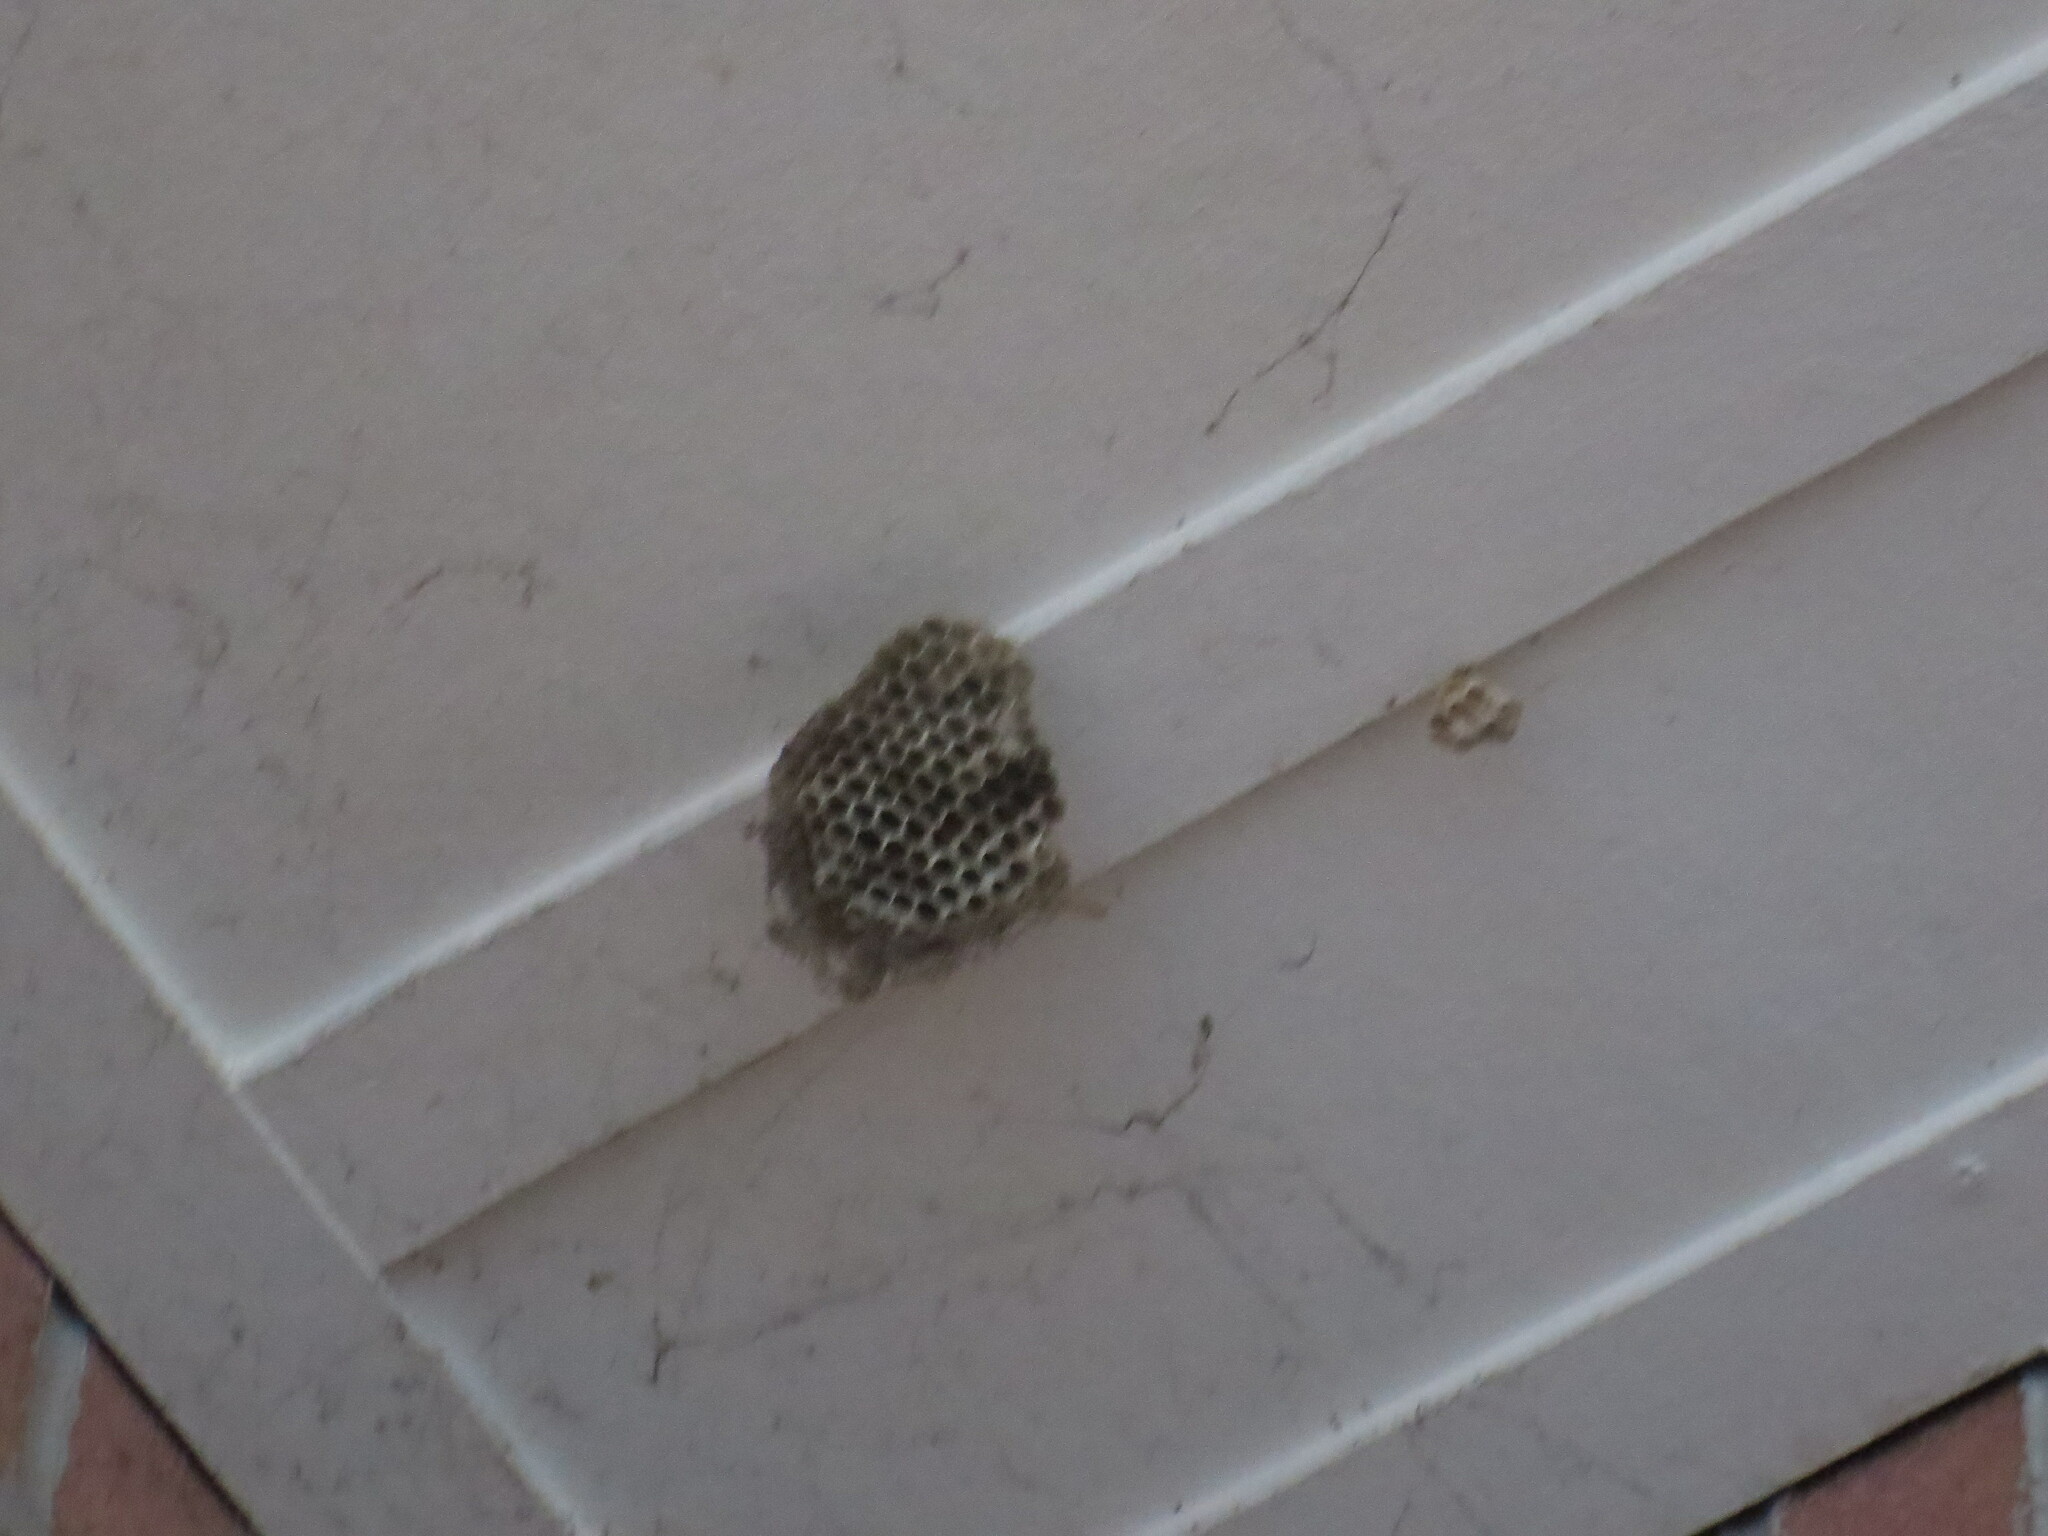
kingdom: Animalia
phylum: Arthropoda
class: Insecta
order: Hymenoptera
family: Vespidae
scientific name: Vespidae
